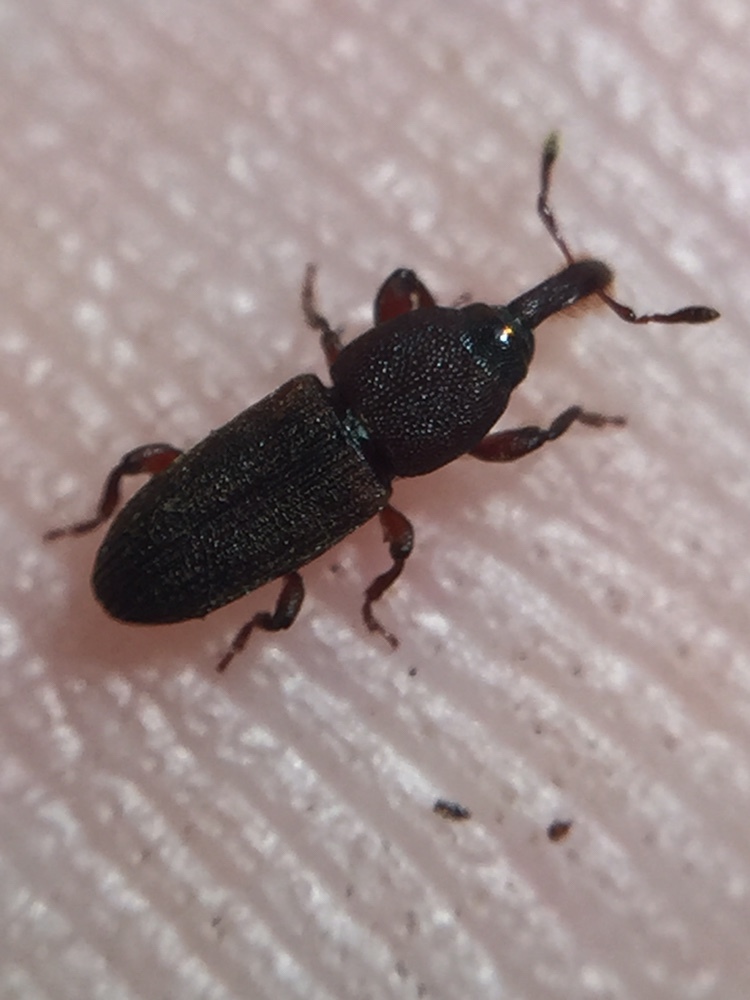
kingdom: Animalia
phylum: Arthropoda
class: Insecta
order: Coleoptera
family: Curculionidae
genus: Pogonorhinus
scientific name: Pogonorhinus opacus
